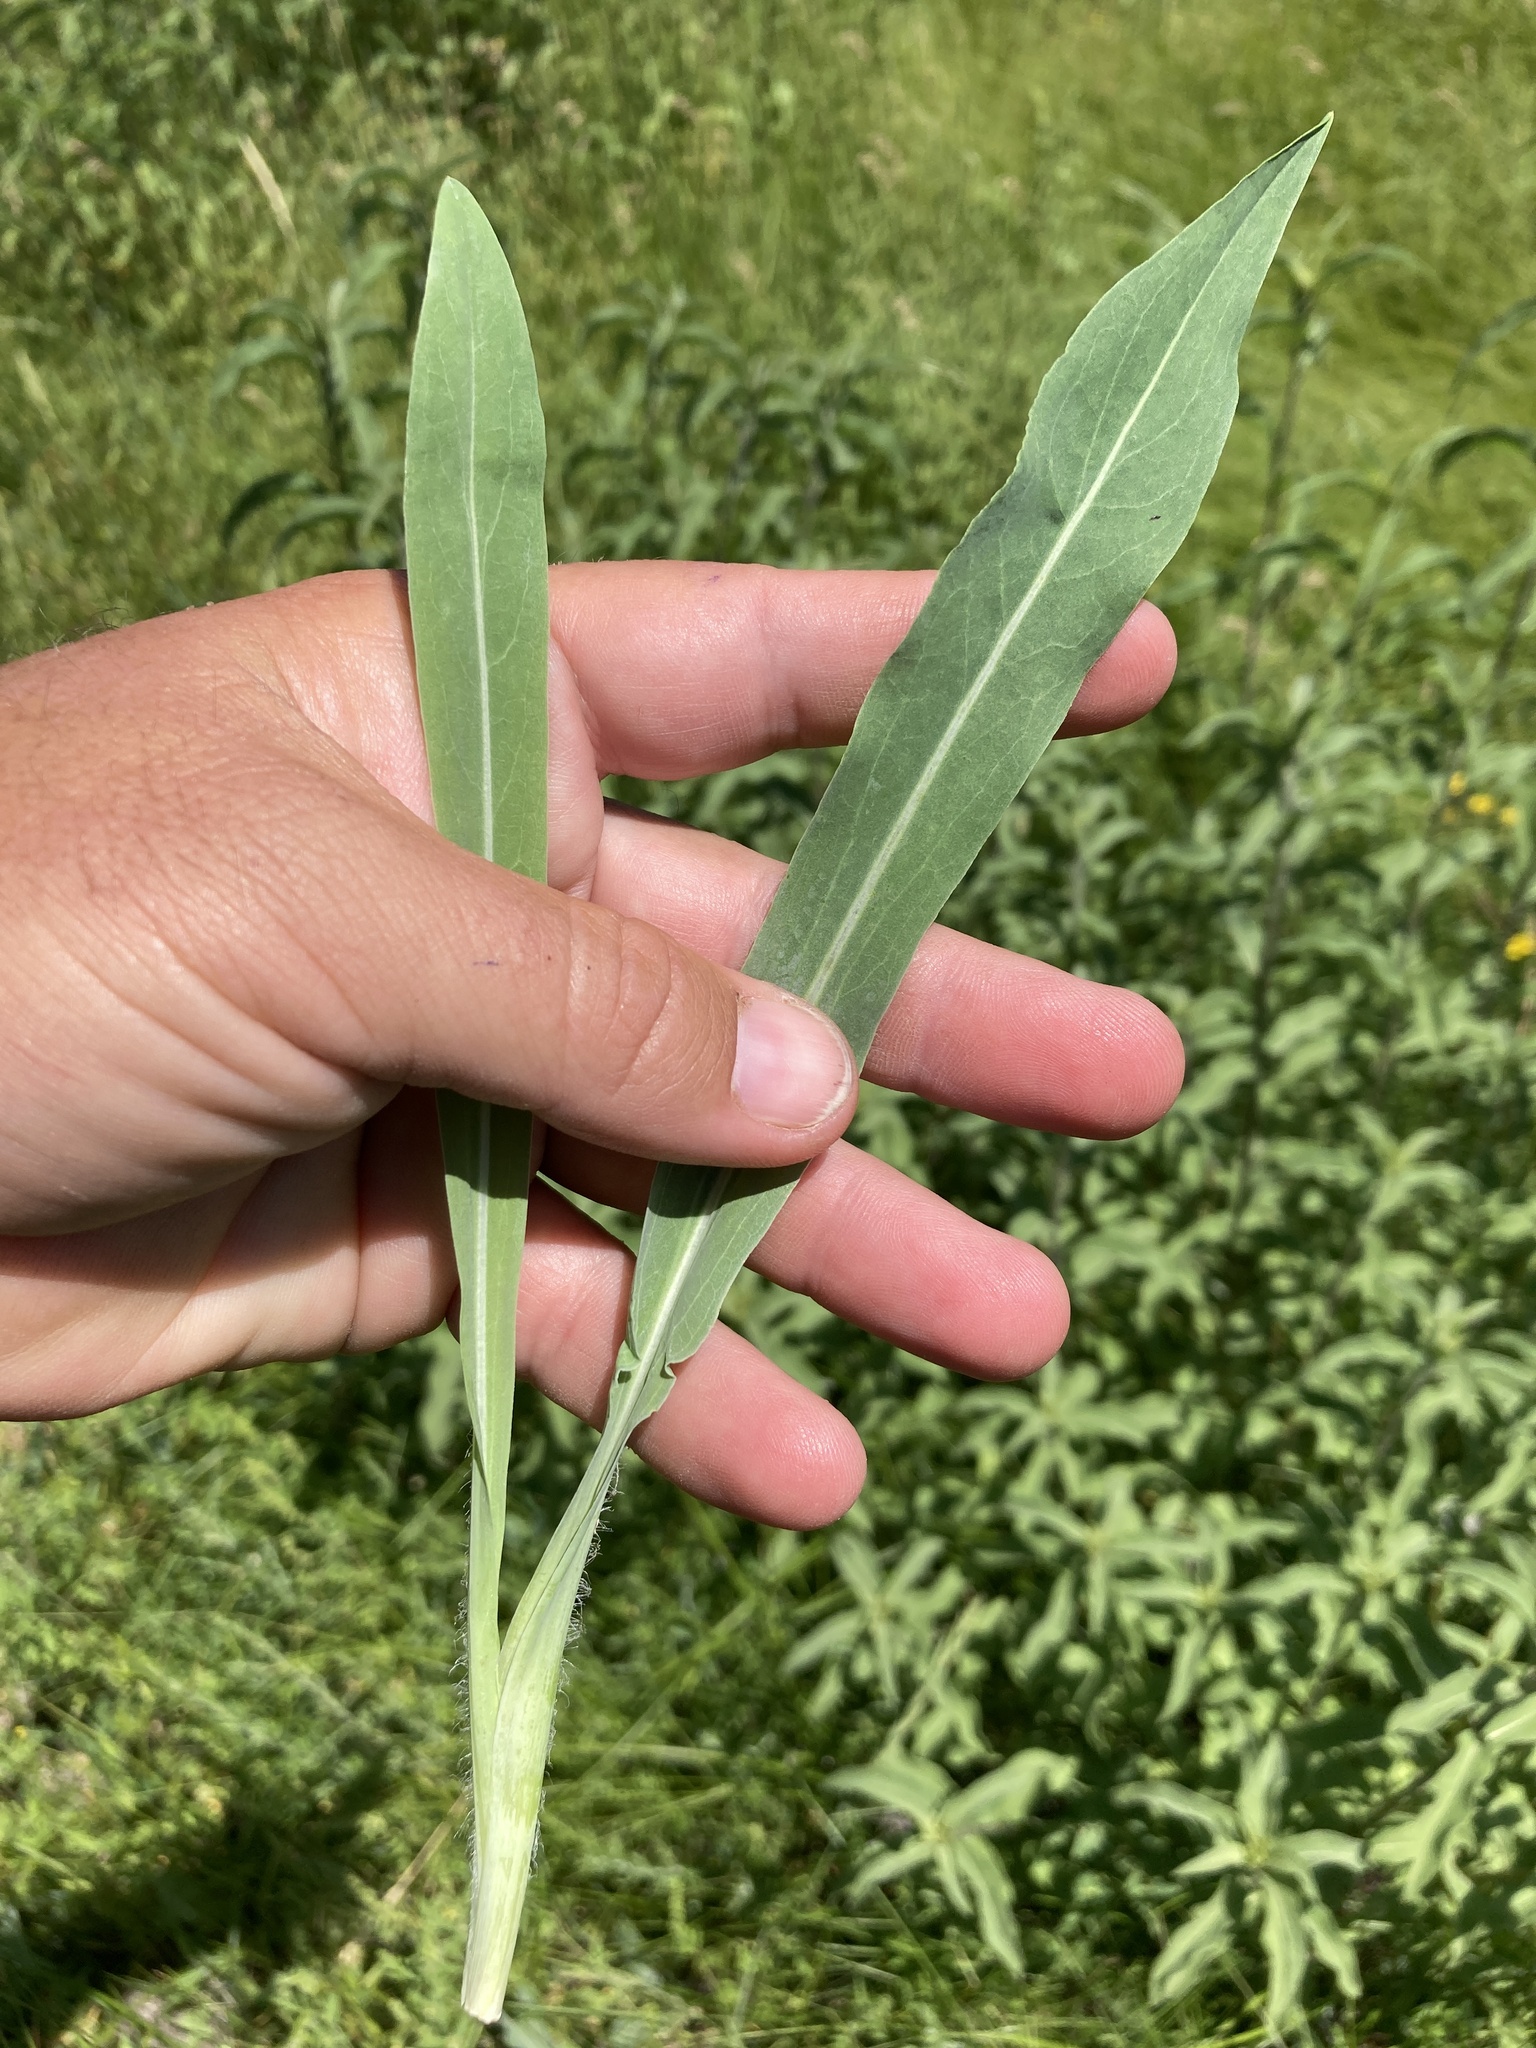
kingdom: Plantae
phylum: Tracheophyta
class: Magnoliopsida
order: Asterales
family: Asteraceae
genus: Agoseris
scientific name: Agoseris glauca
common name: Prairie agoseris
